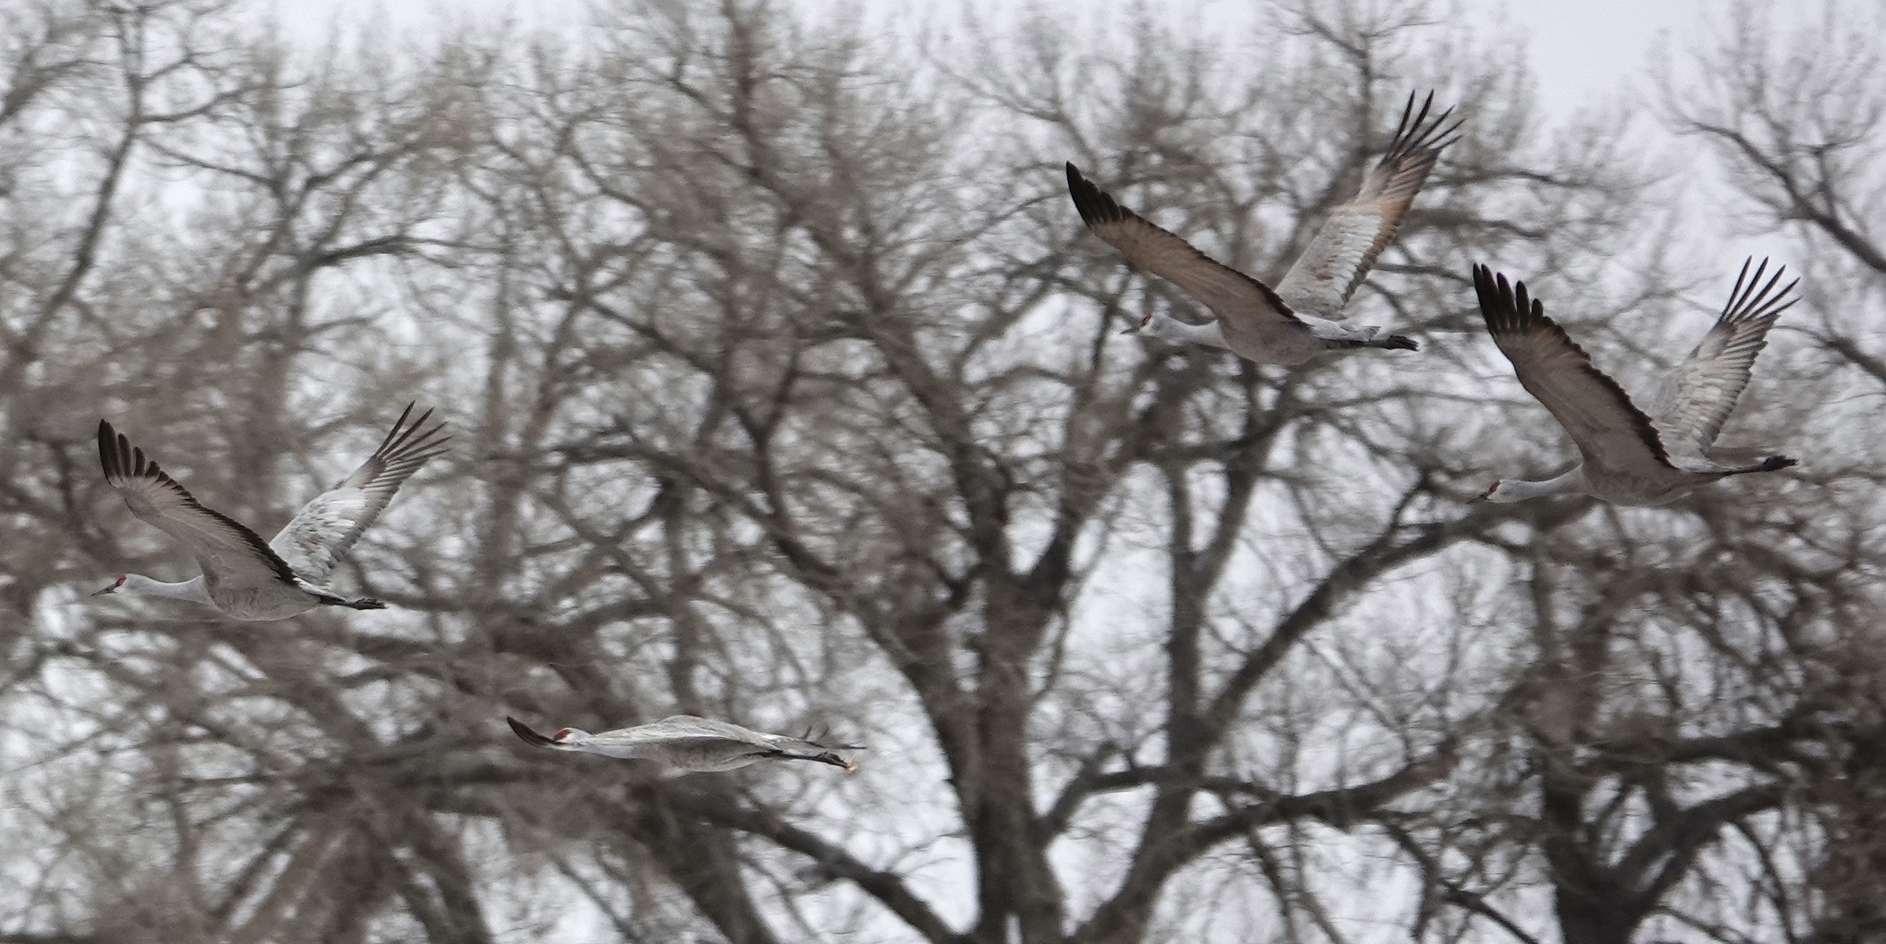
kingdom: Animalia
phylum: Chordata
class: Aves
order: Gruiformes
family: Gruidae
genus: Grus
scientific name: Grus canadensis
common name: Sandhill crane
